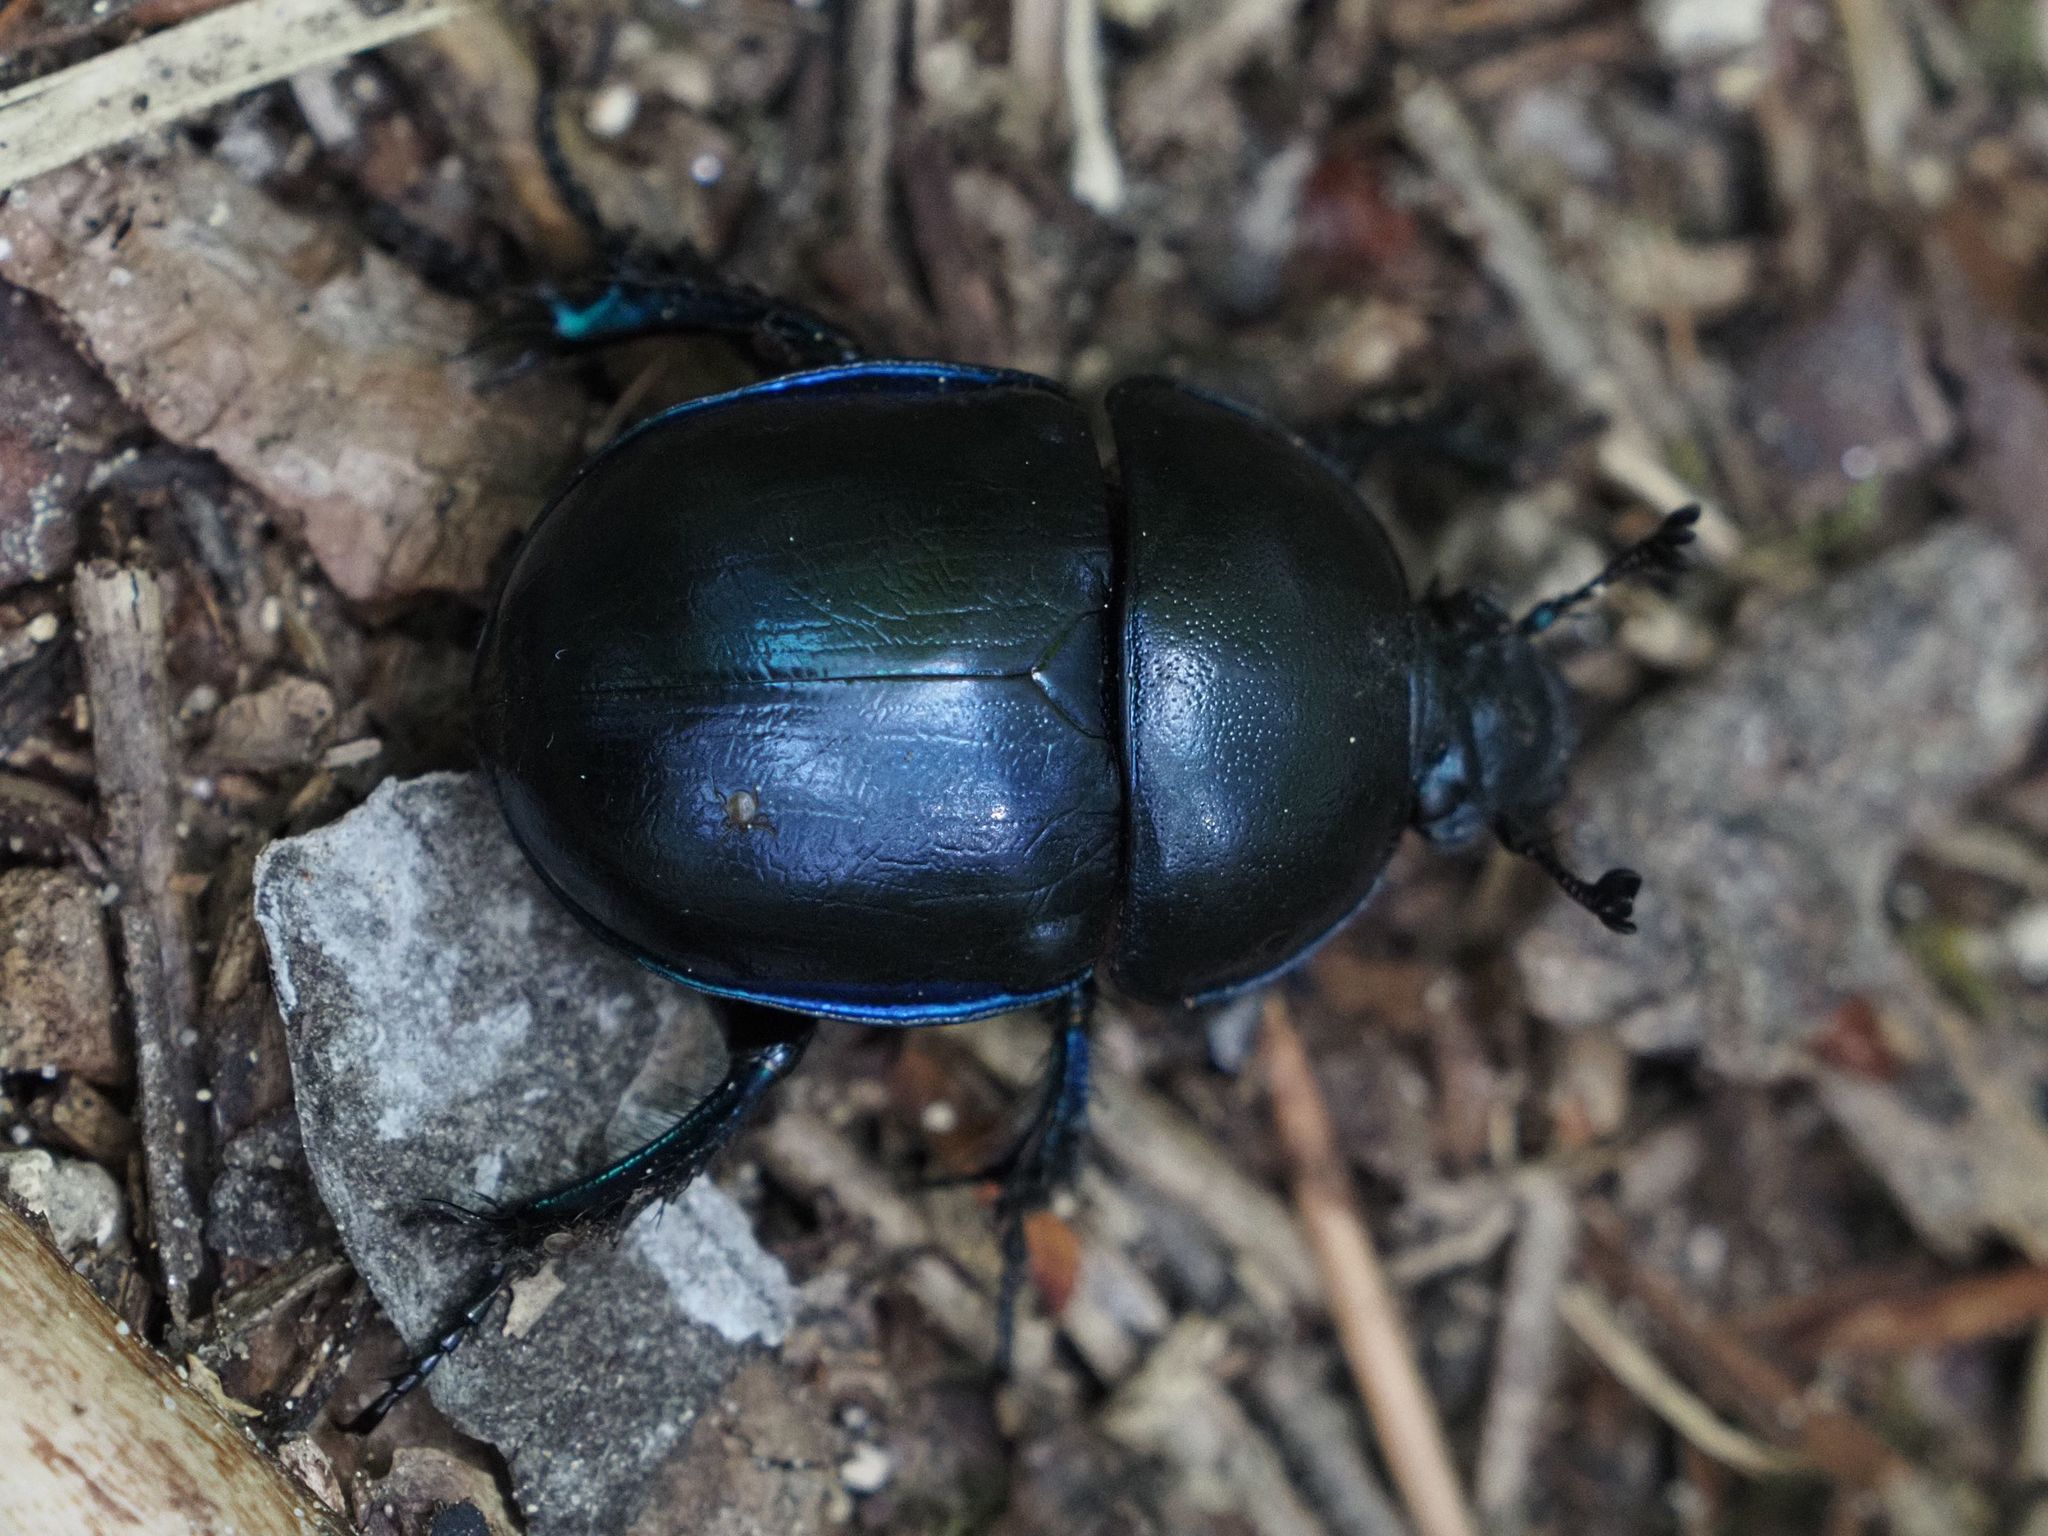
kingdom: Animalia
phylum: Arthropoda
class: Insecta
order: Coleoptera
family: Geotrupidae
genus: Trypocopris
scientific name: Trypocopris vernalis
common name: Spring dumbledor
